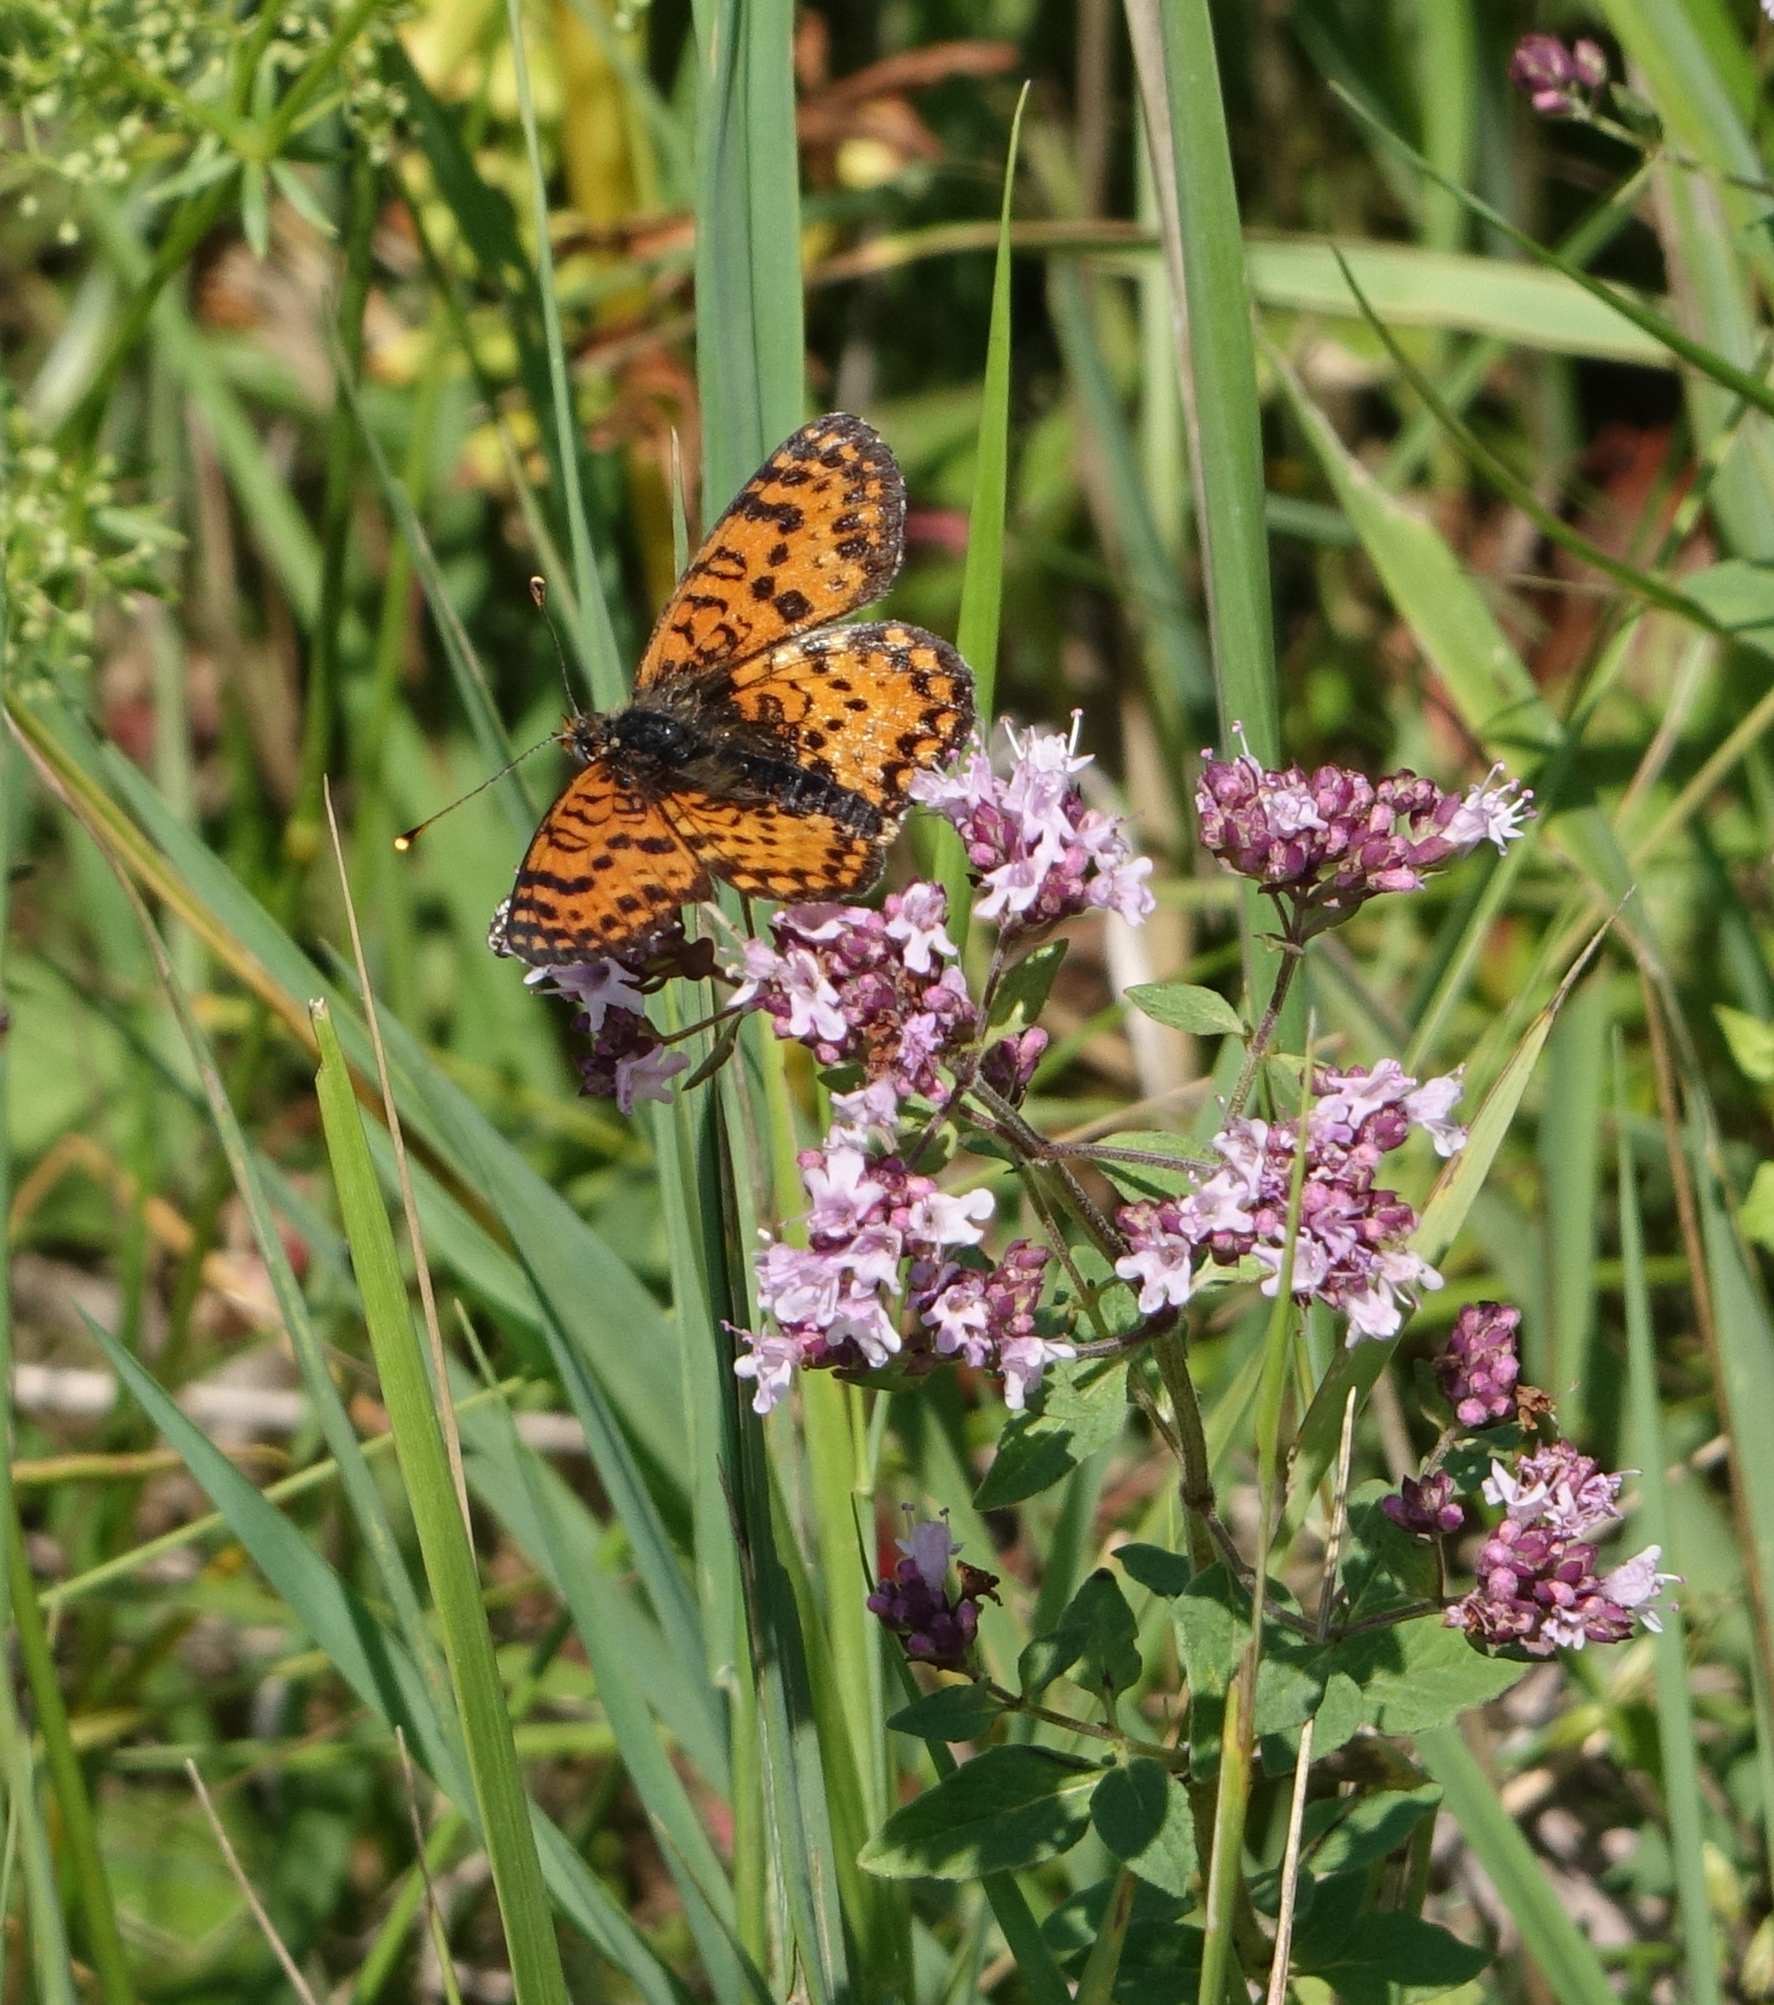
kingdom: Animalia
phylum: Arthropoda
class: Insecta
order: Lepidoptera
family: Nymphalidae
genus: Melitaea
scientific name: Melitaea didyma
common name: Spotted fritillary
